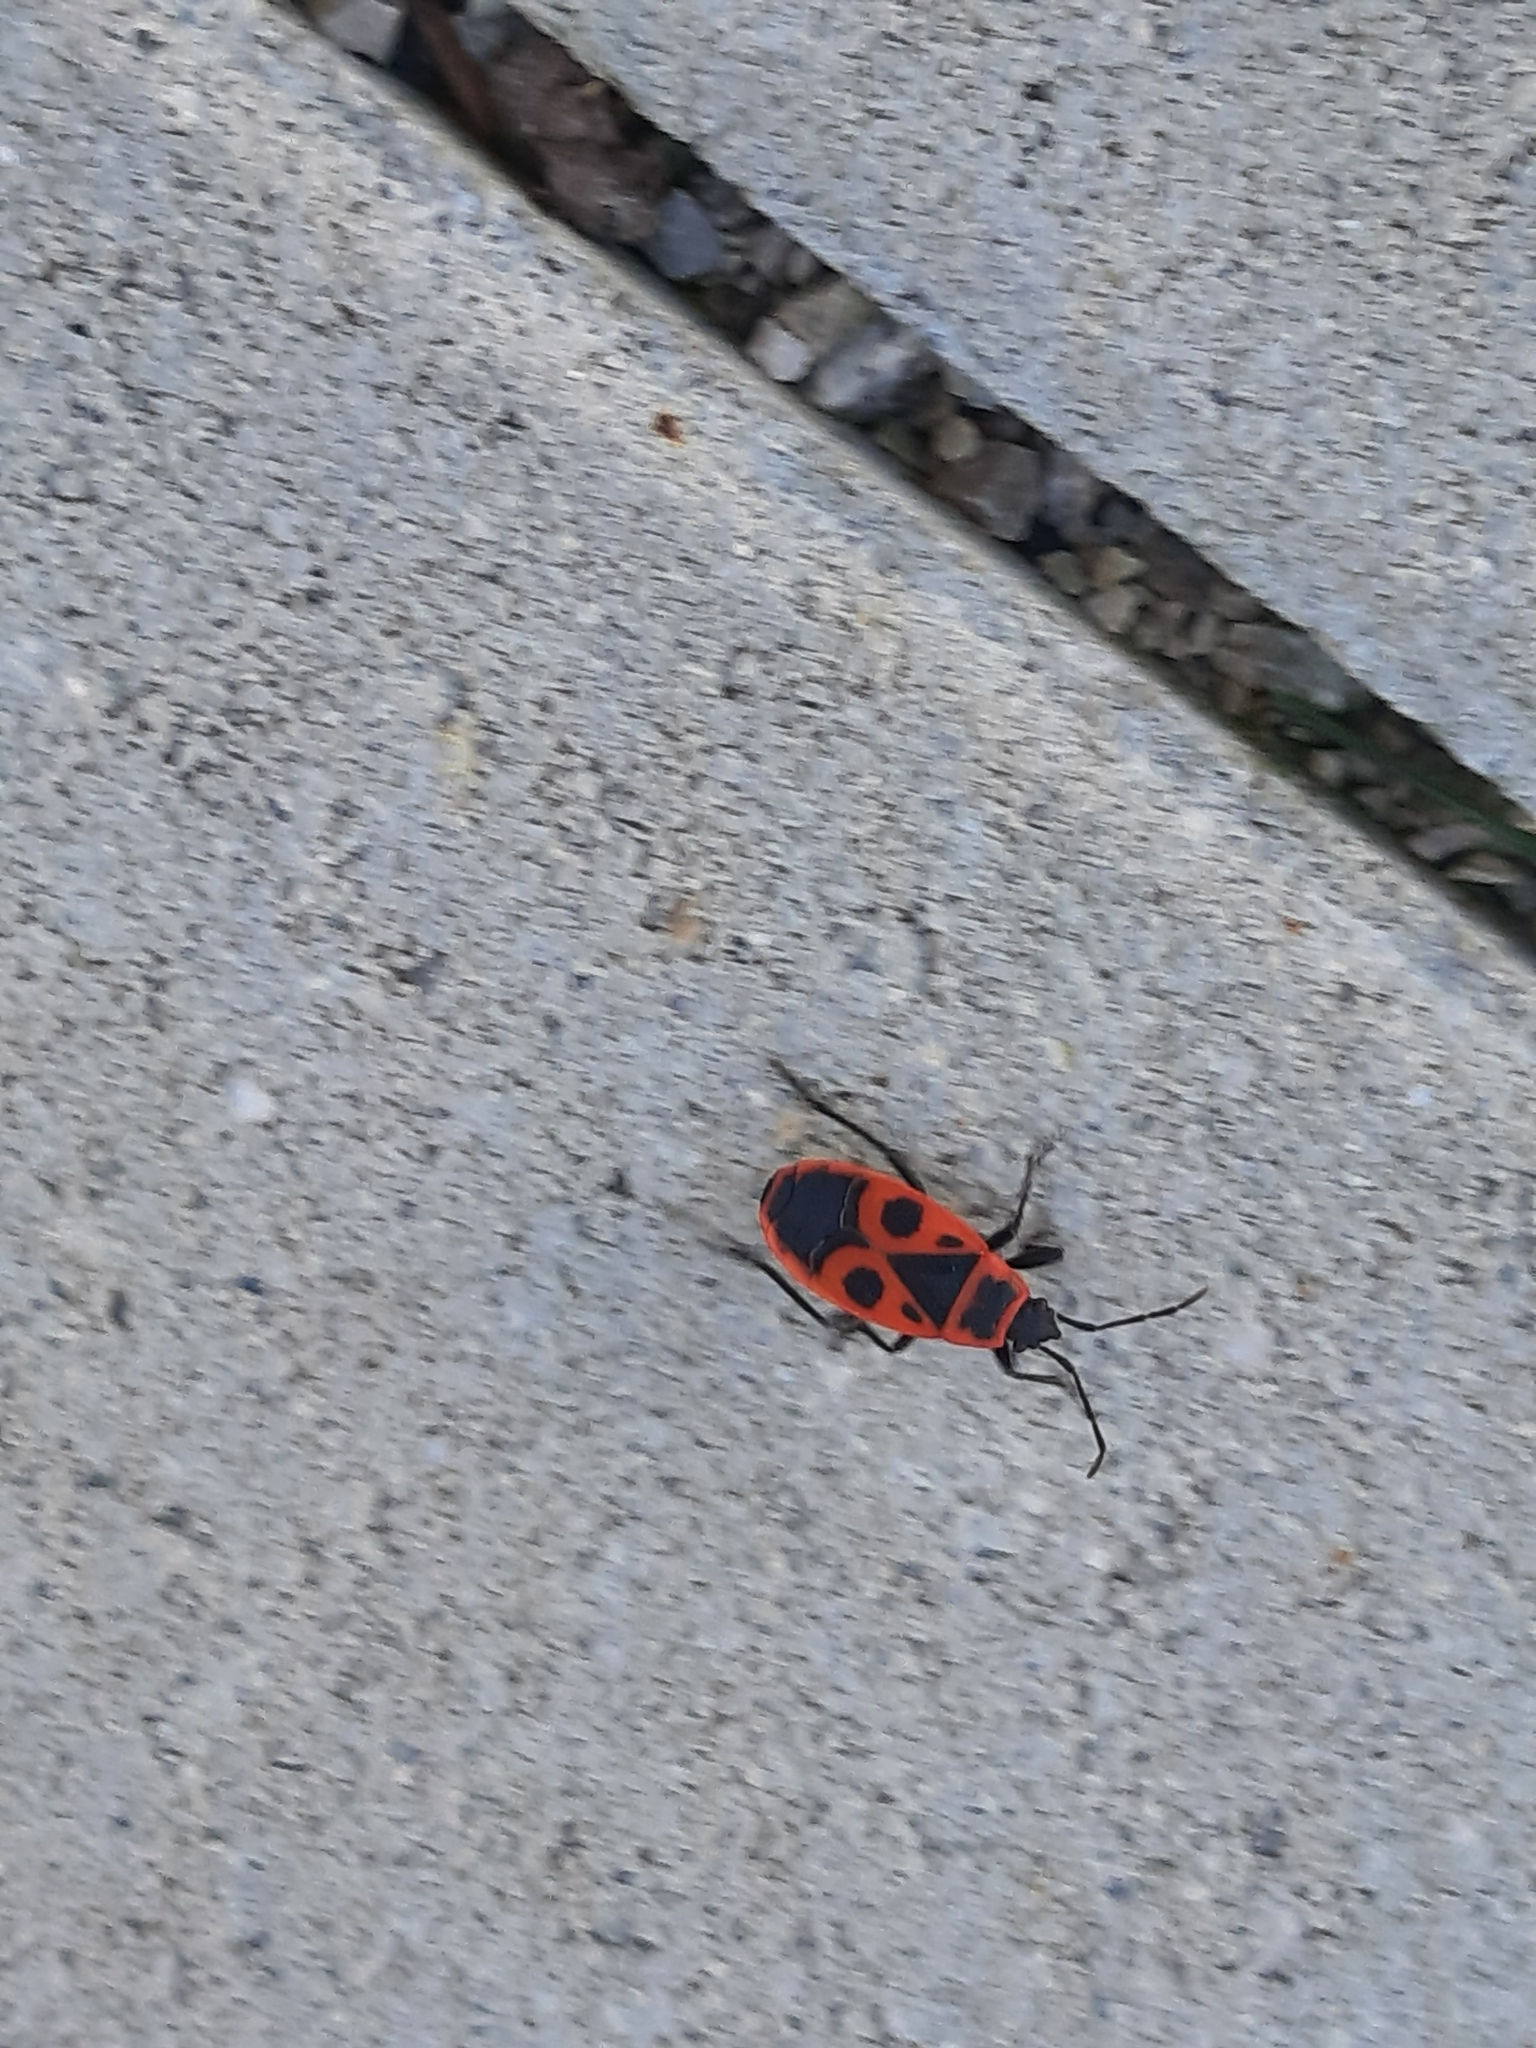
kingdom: Animalia
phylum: Arthropoda
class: Insecta
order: Hemiptera
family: Pyrrhocoridae
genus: Pyrrhocoris
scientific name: Pyrrhocoris apterus
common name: Firebug
